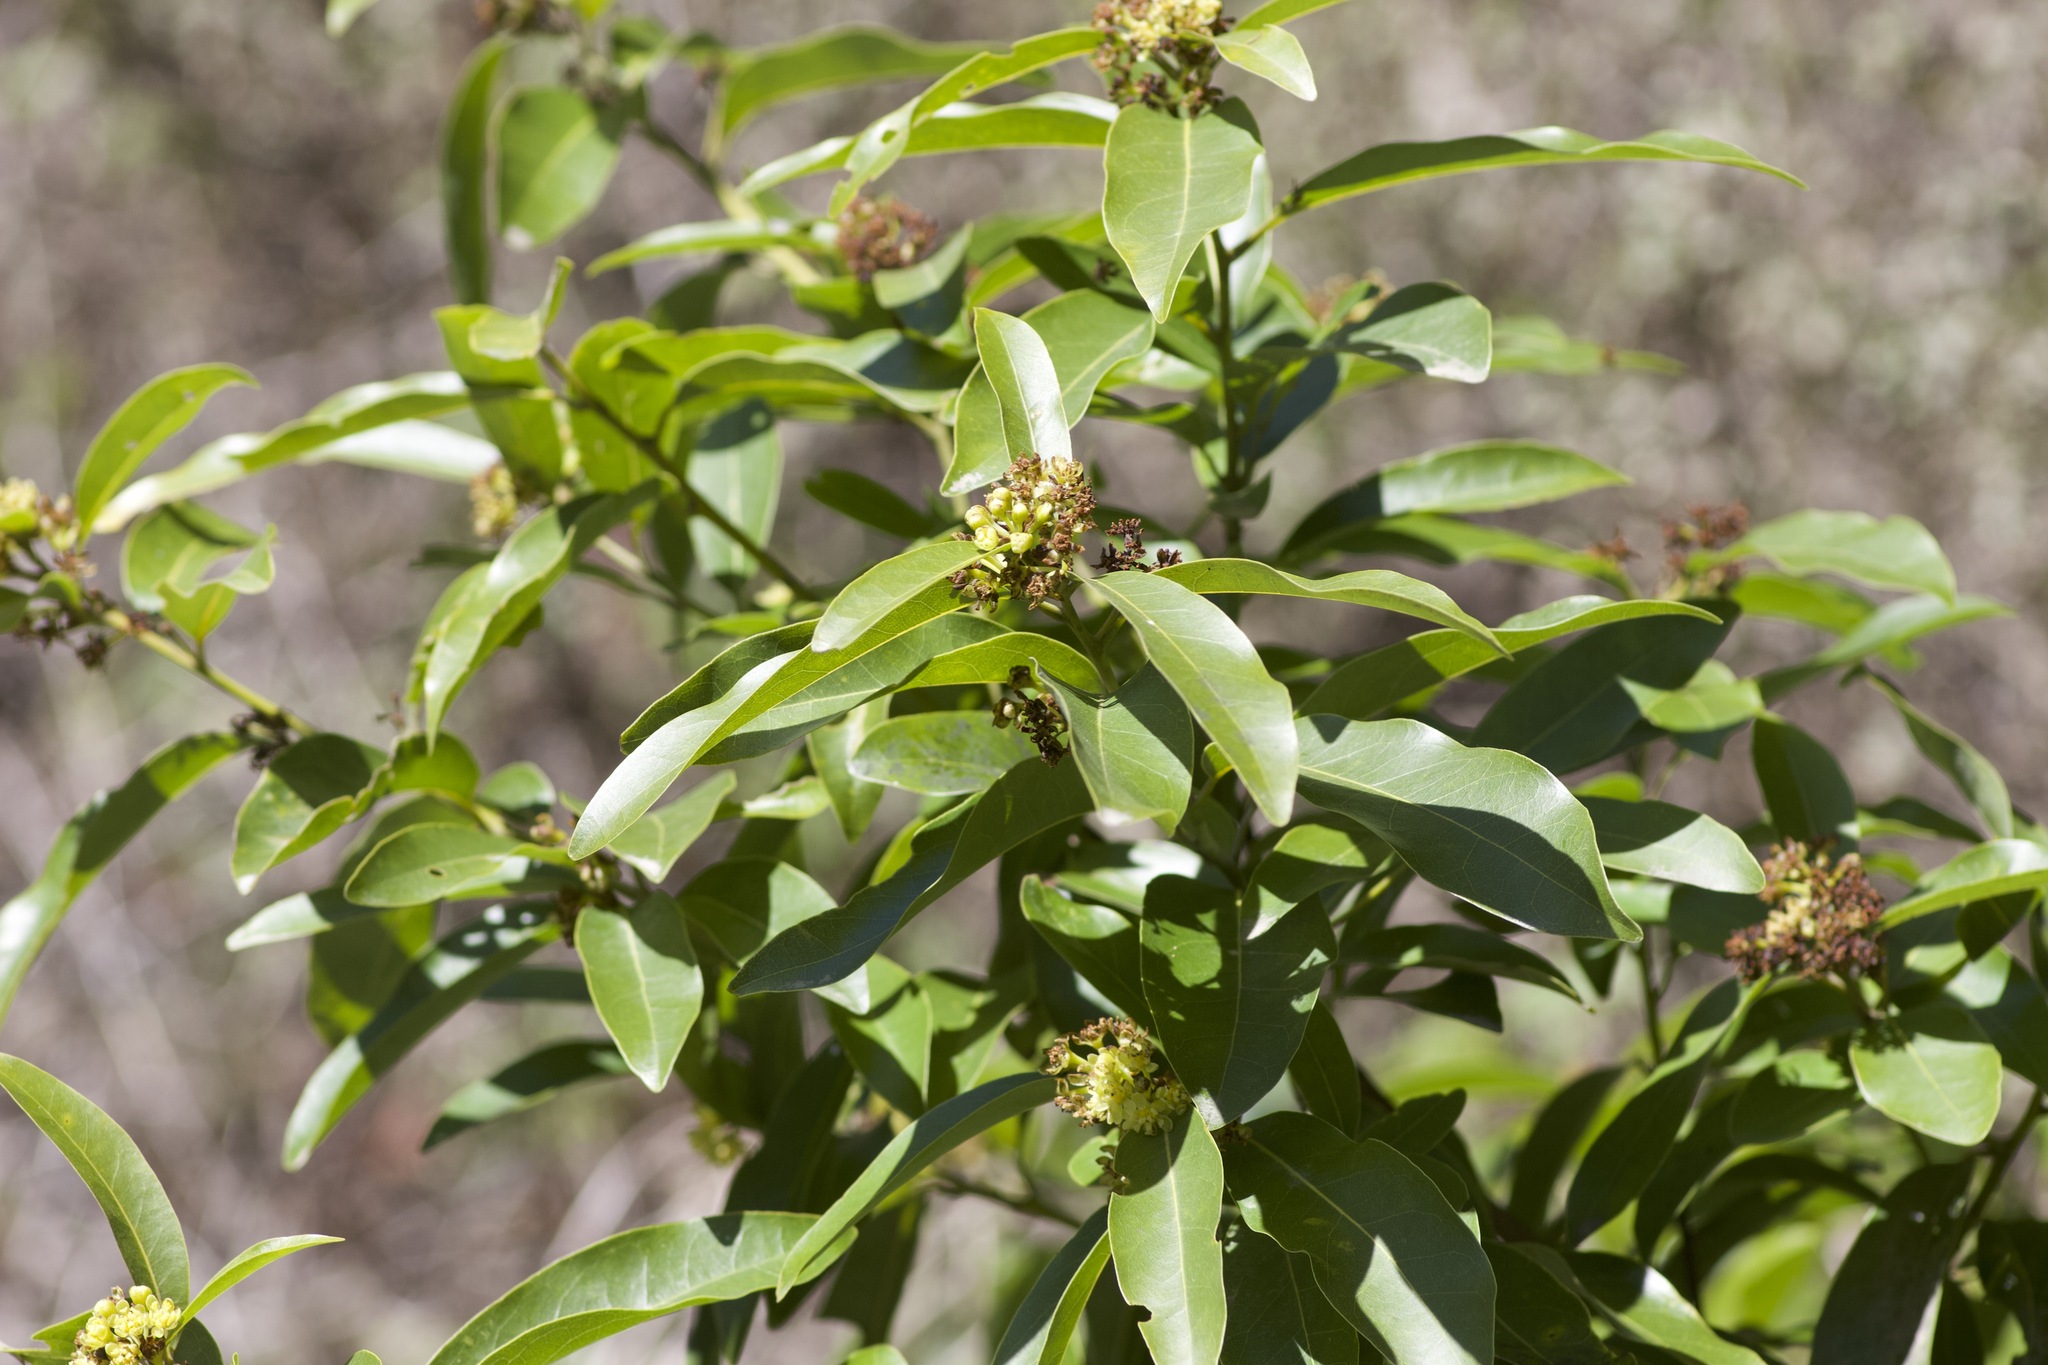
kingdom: Plantae
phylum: Tracheophyta
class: Magnoliopsida
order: Laurales
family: Lauraceae
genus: Umbellularia
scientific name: Umbellularia californica
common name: California bay
